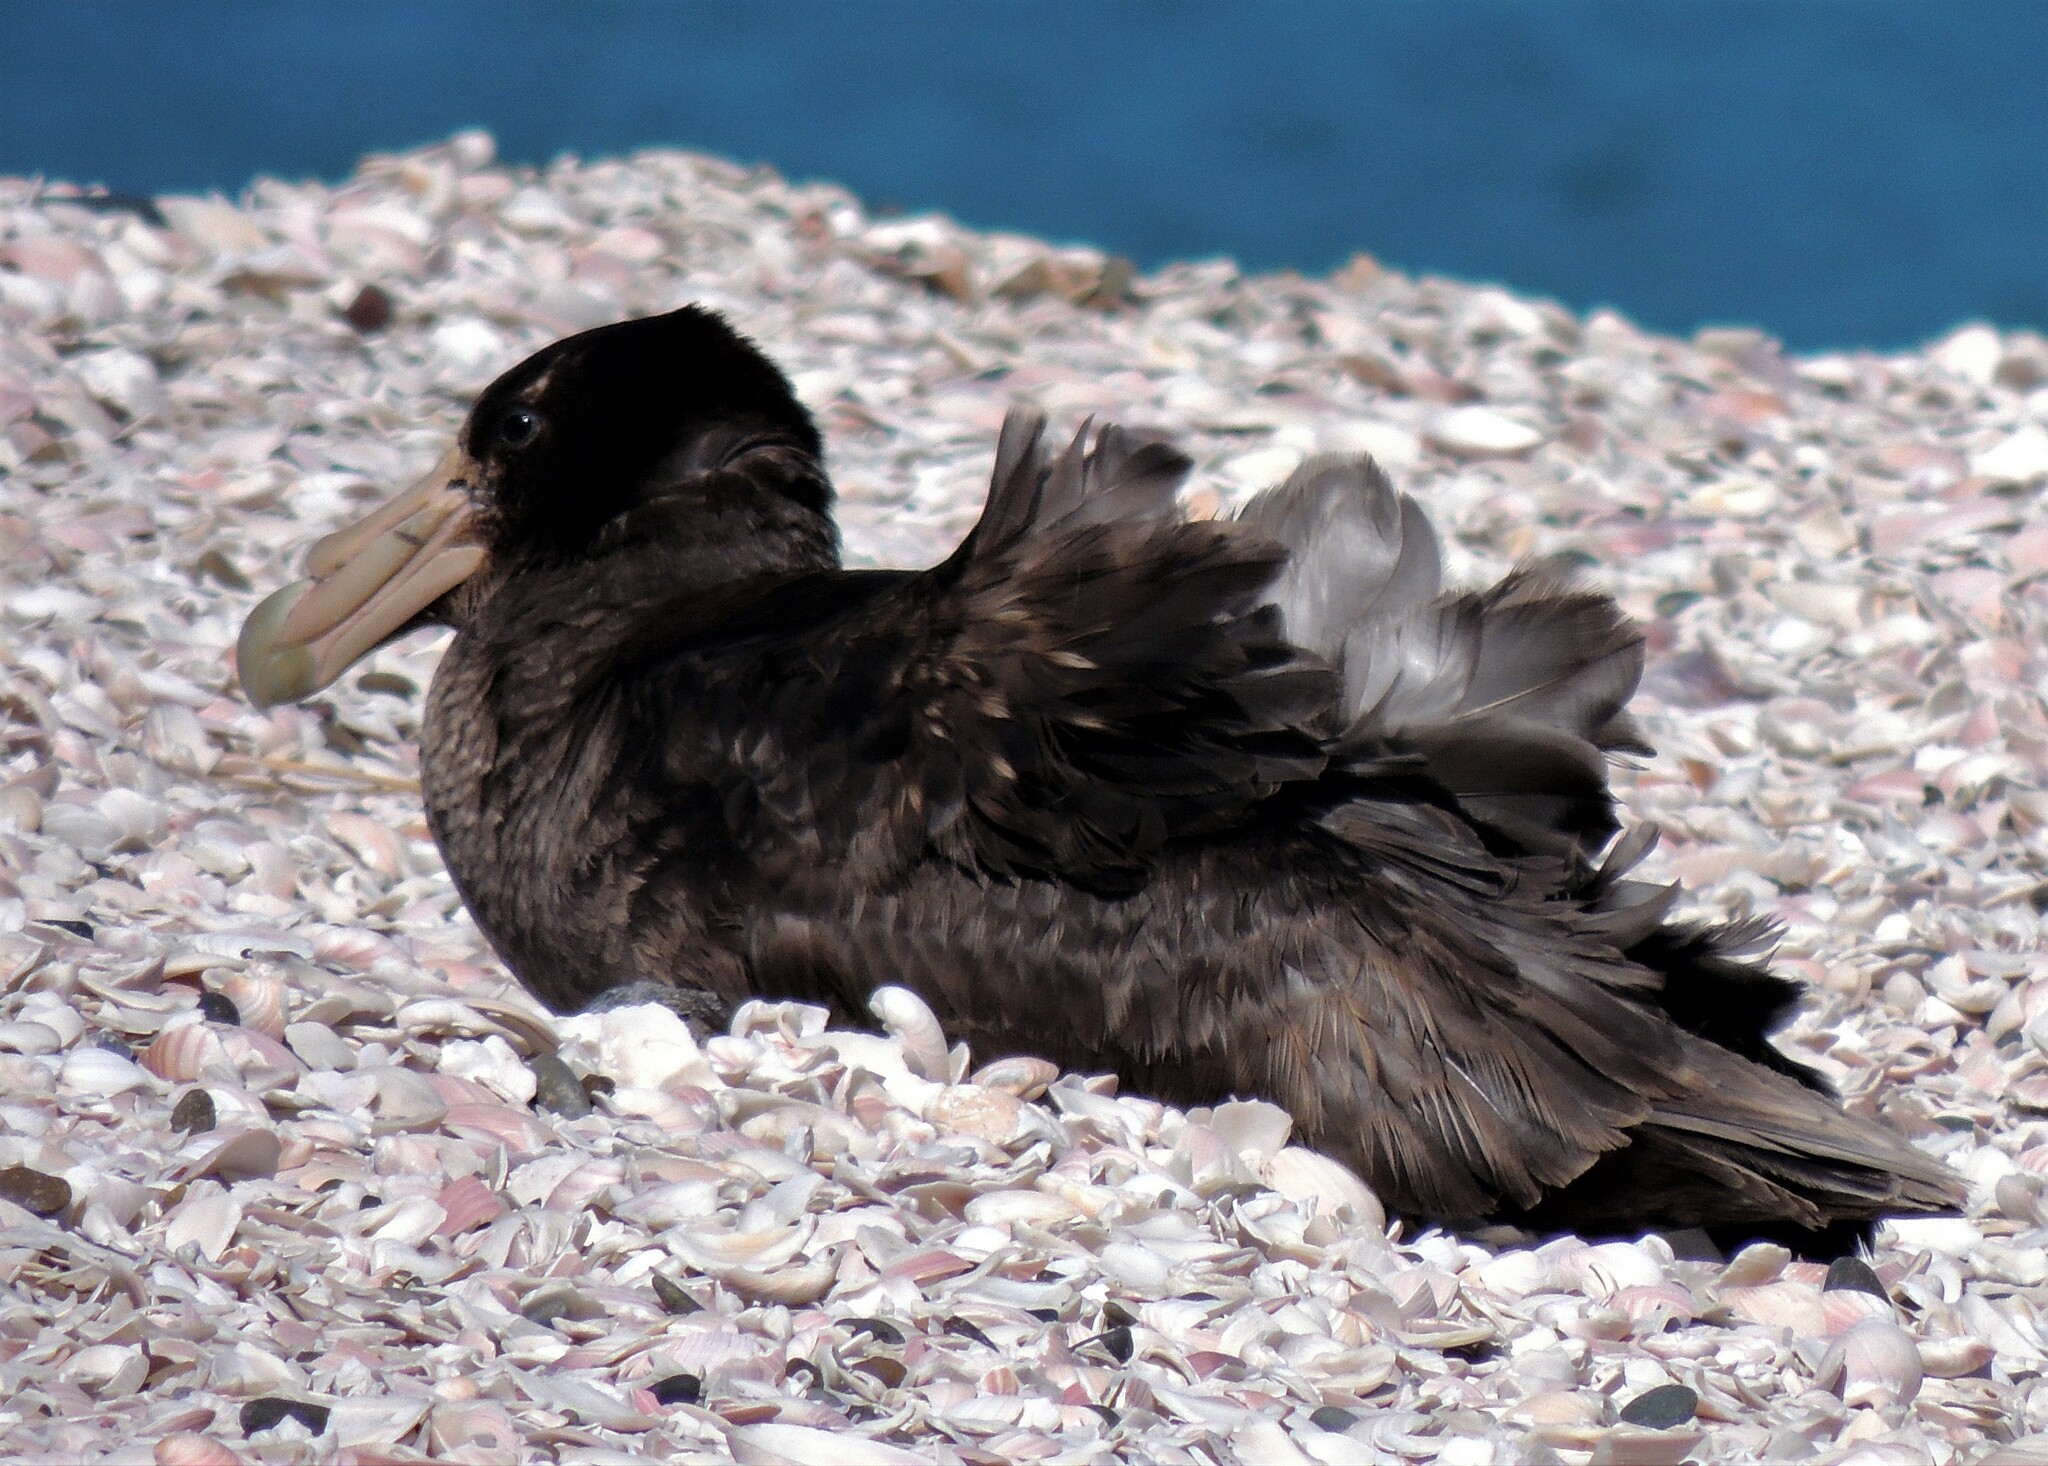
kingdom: Animalia
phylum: Chordata
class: Aves
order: Procellariiformes
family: Procellariidae
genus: Macronectes
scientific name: Macronectes giganteus
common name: Southern giant petrel
